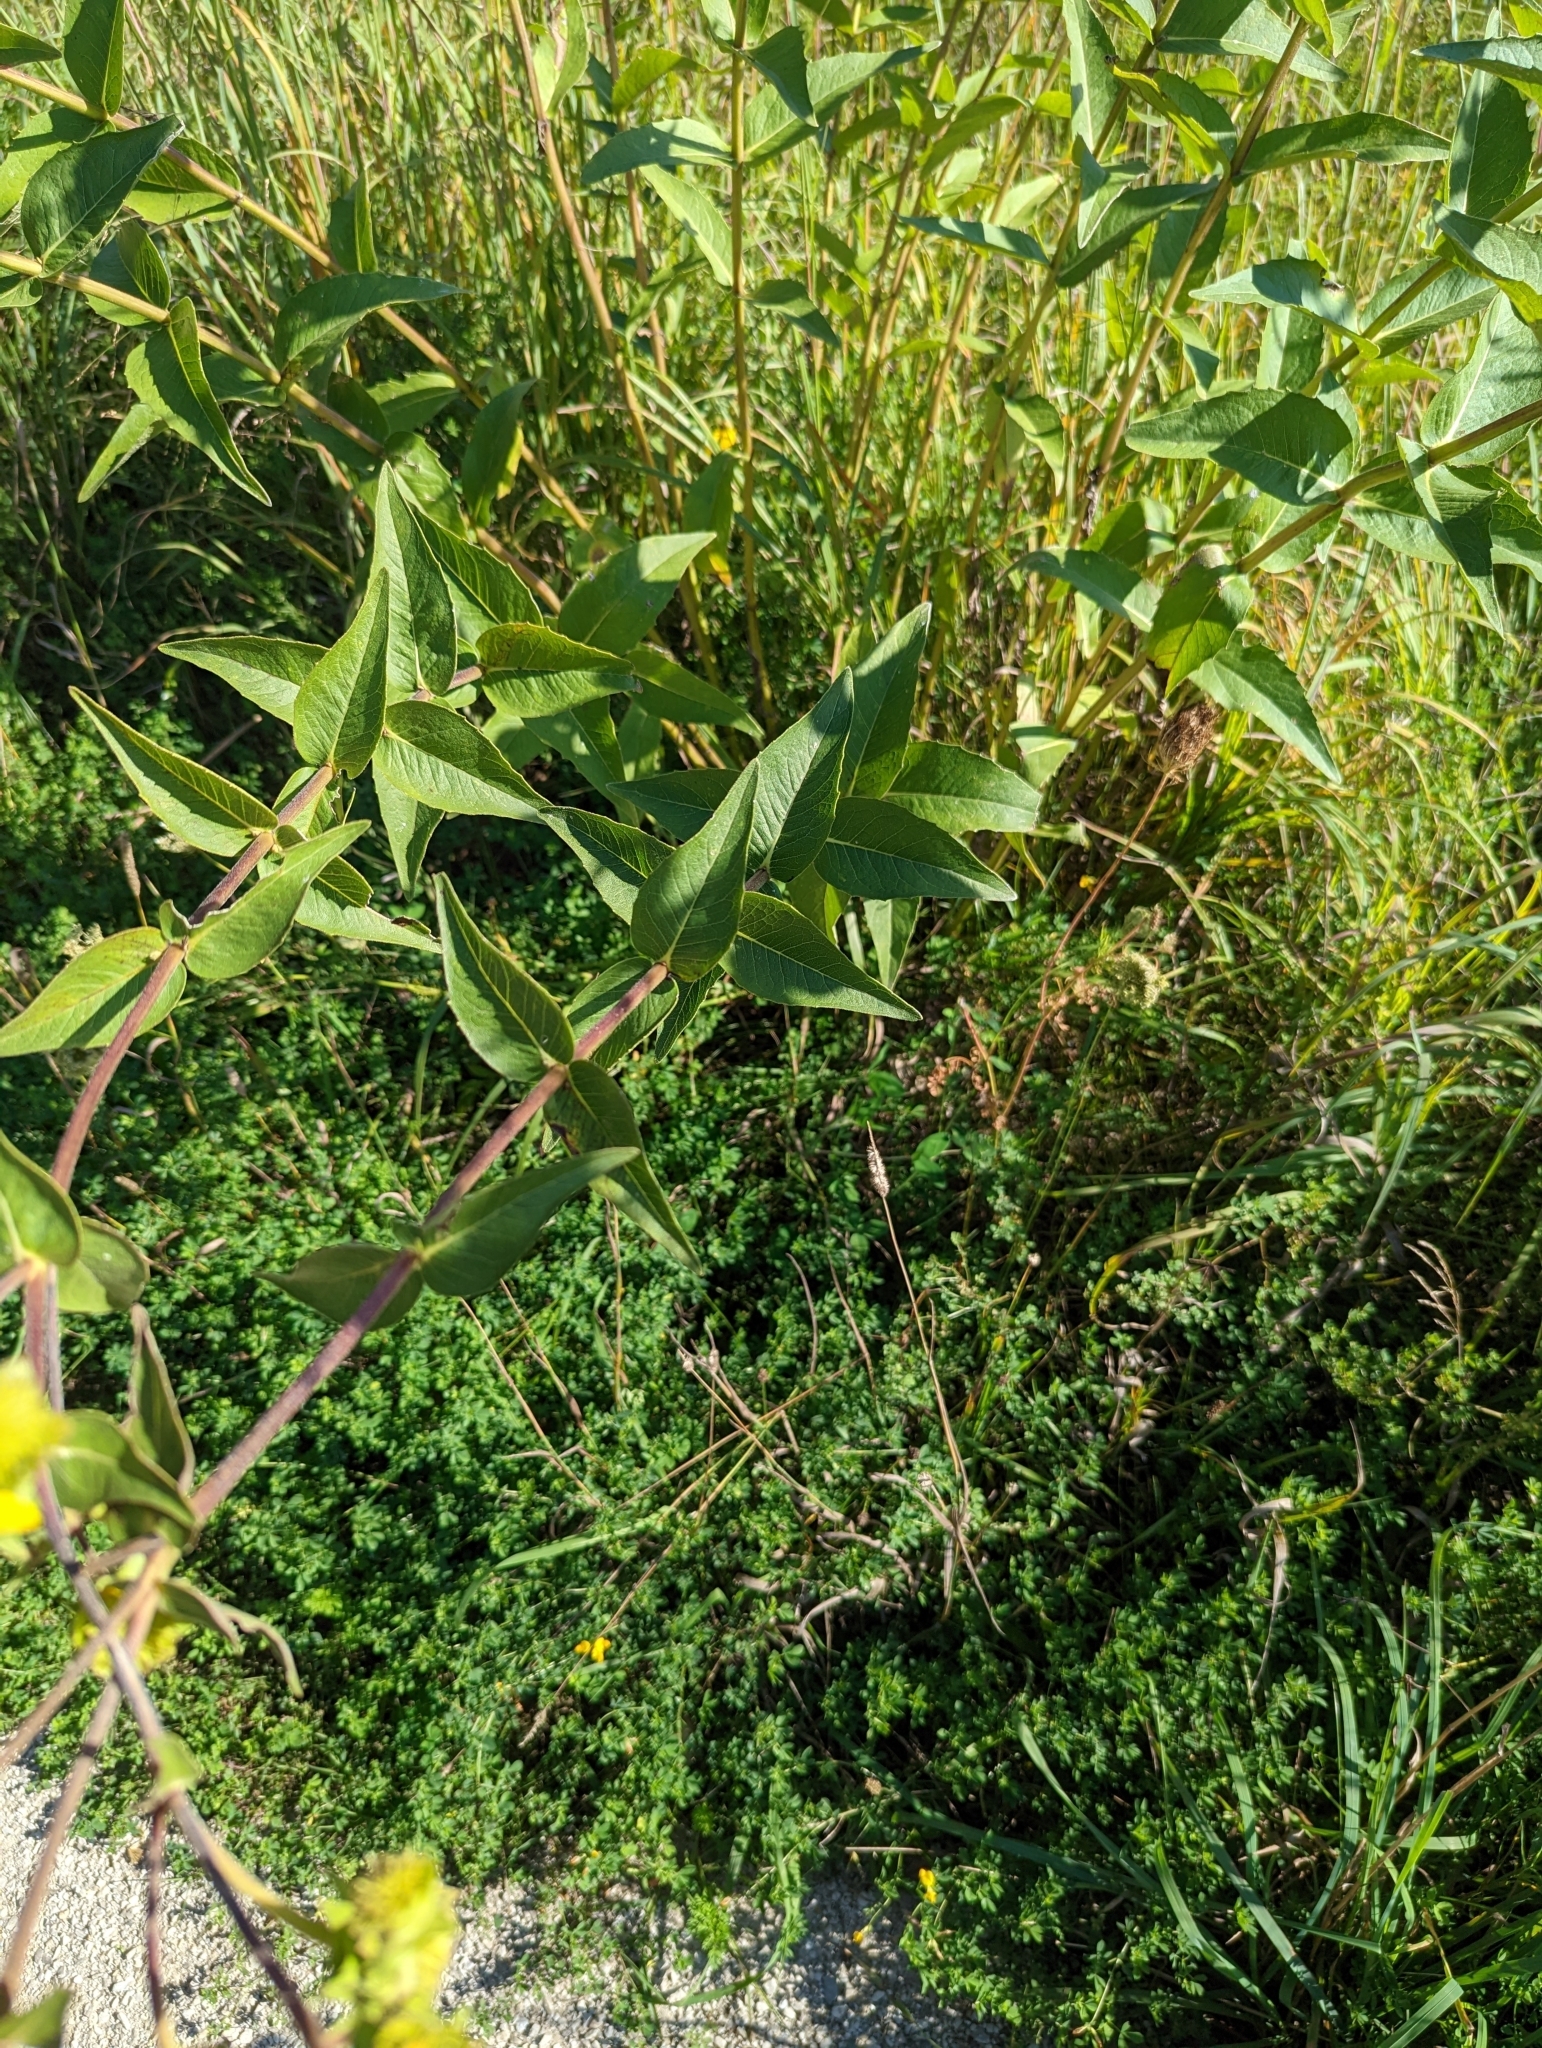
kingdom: Plantae
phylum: Tracheophyta
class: Magnoliopsida
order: Asterales
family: Asteraceae
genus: Silphium
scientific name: Silphium integrifolium
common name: Whole-leaf rosinweed
